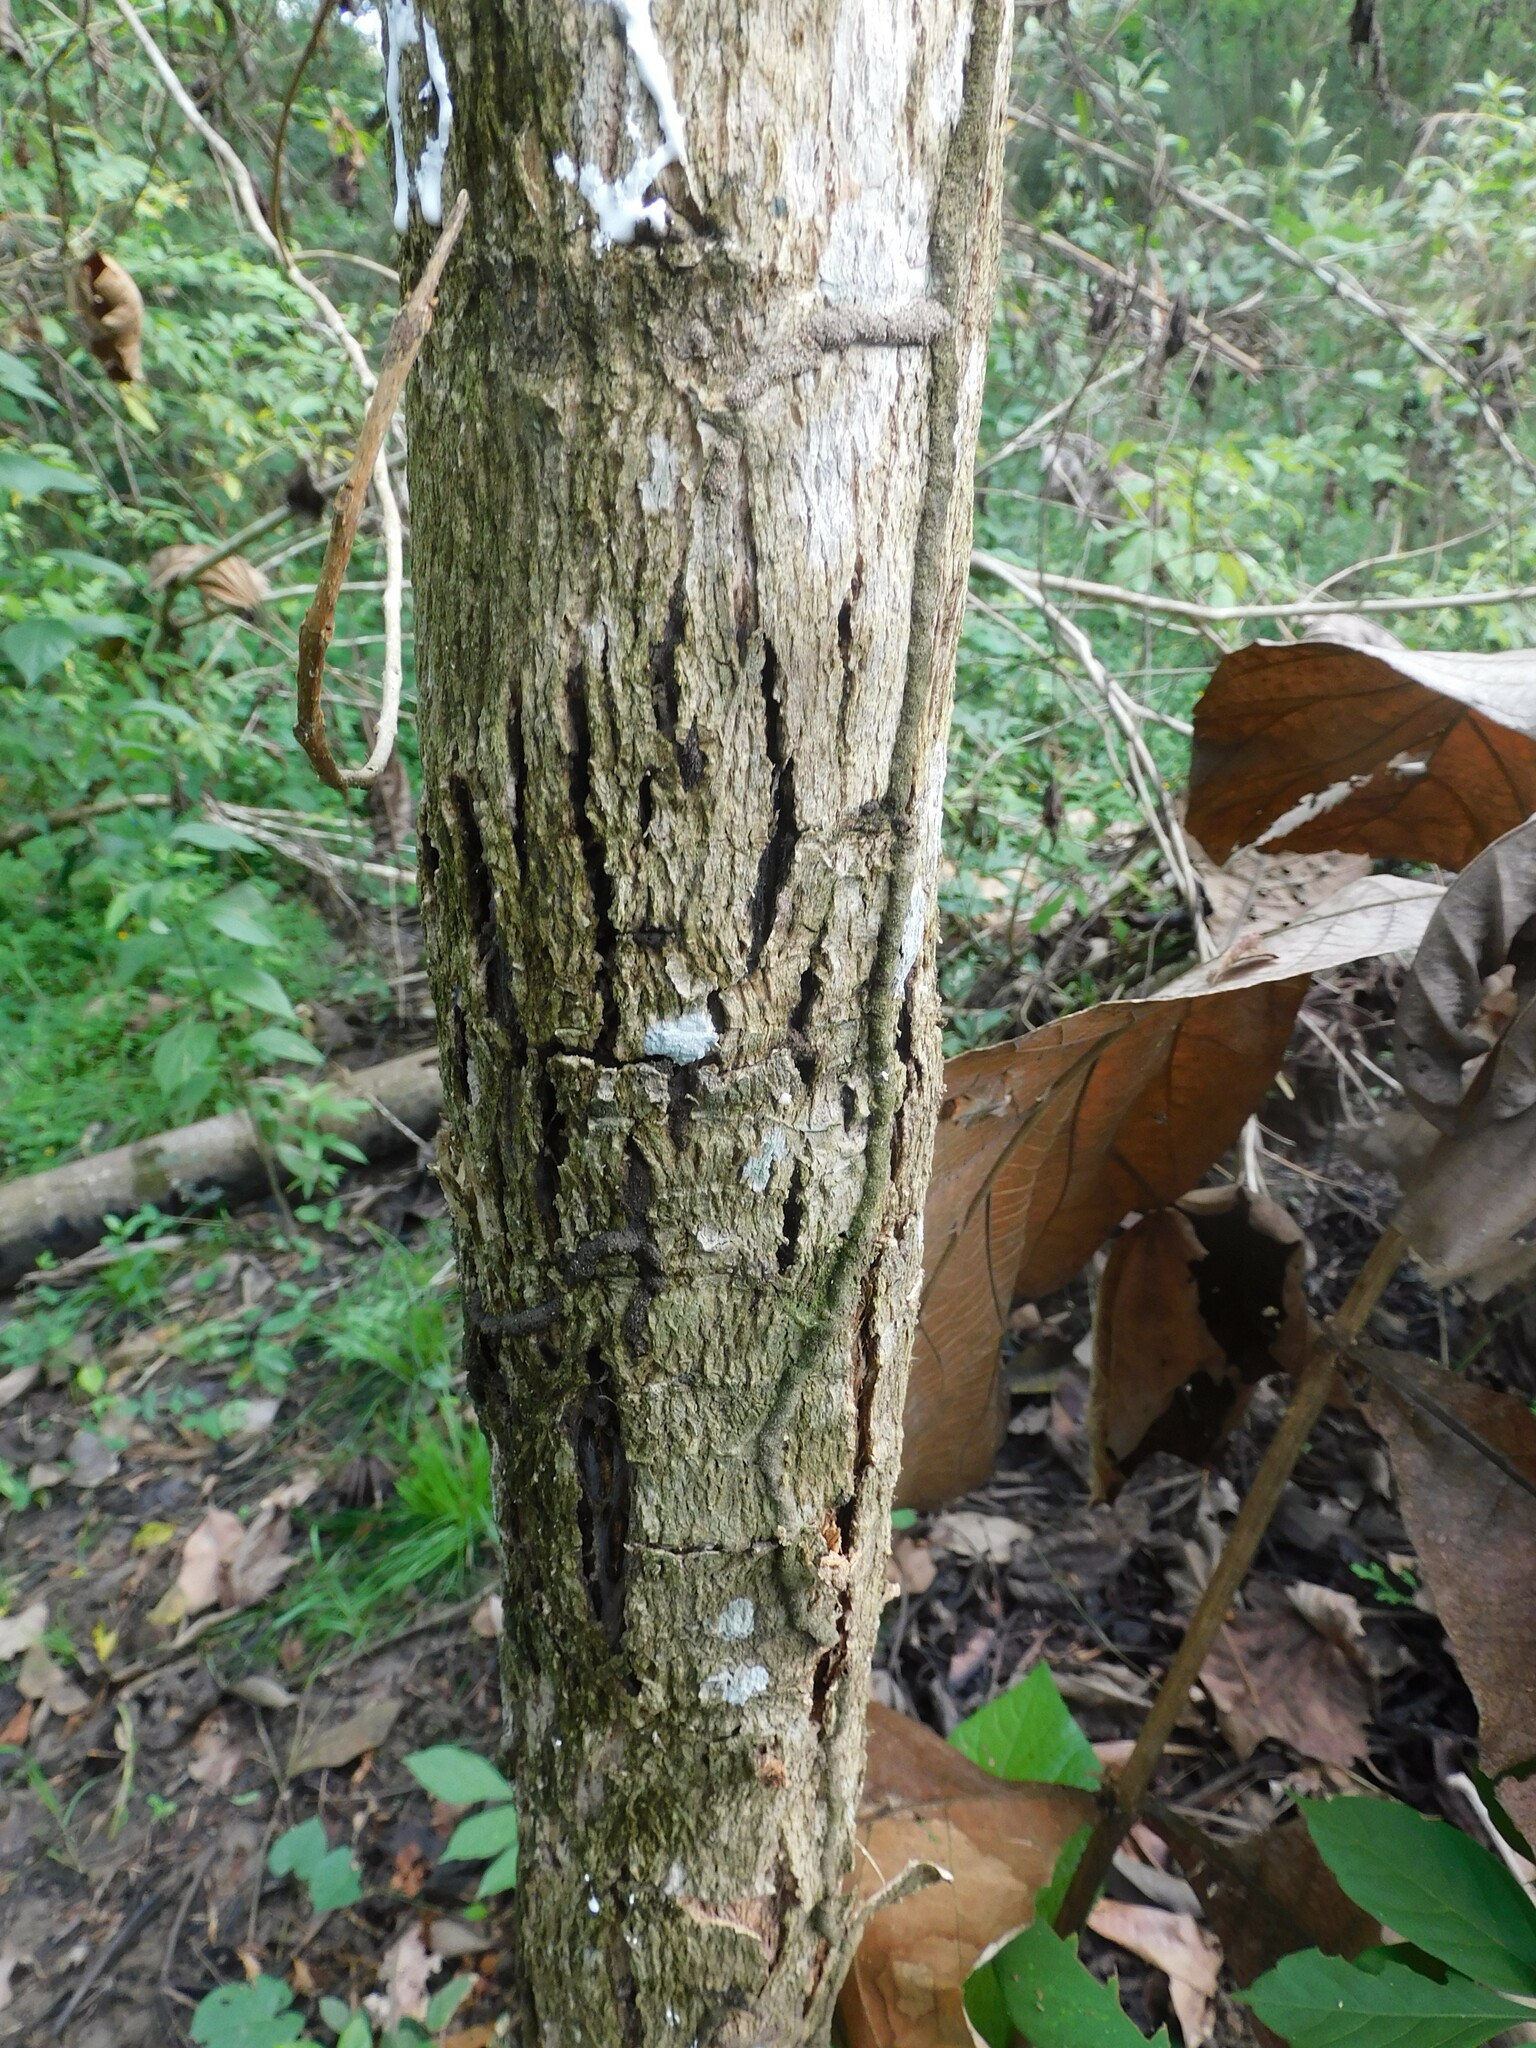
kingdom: Plantae
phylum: Tracheophyta
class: Magnoliopsida
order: Magnoliales
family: Annonaceae
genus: Annona
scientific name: Annona squamosa
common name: Custard-apple
